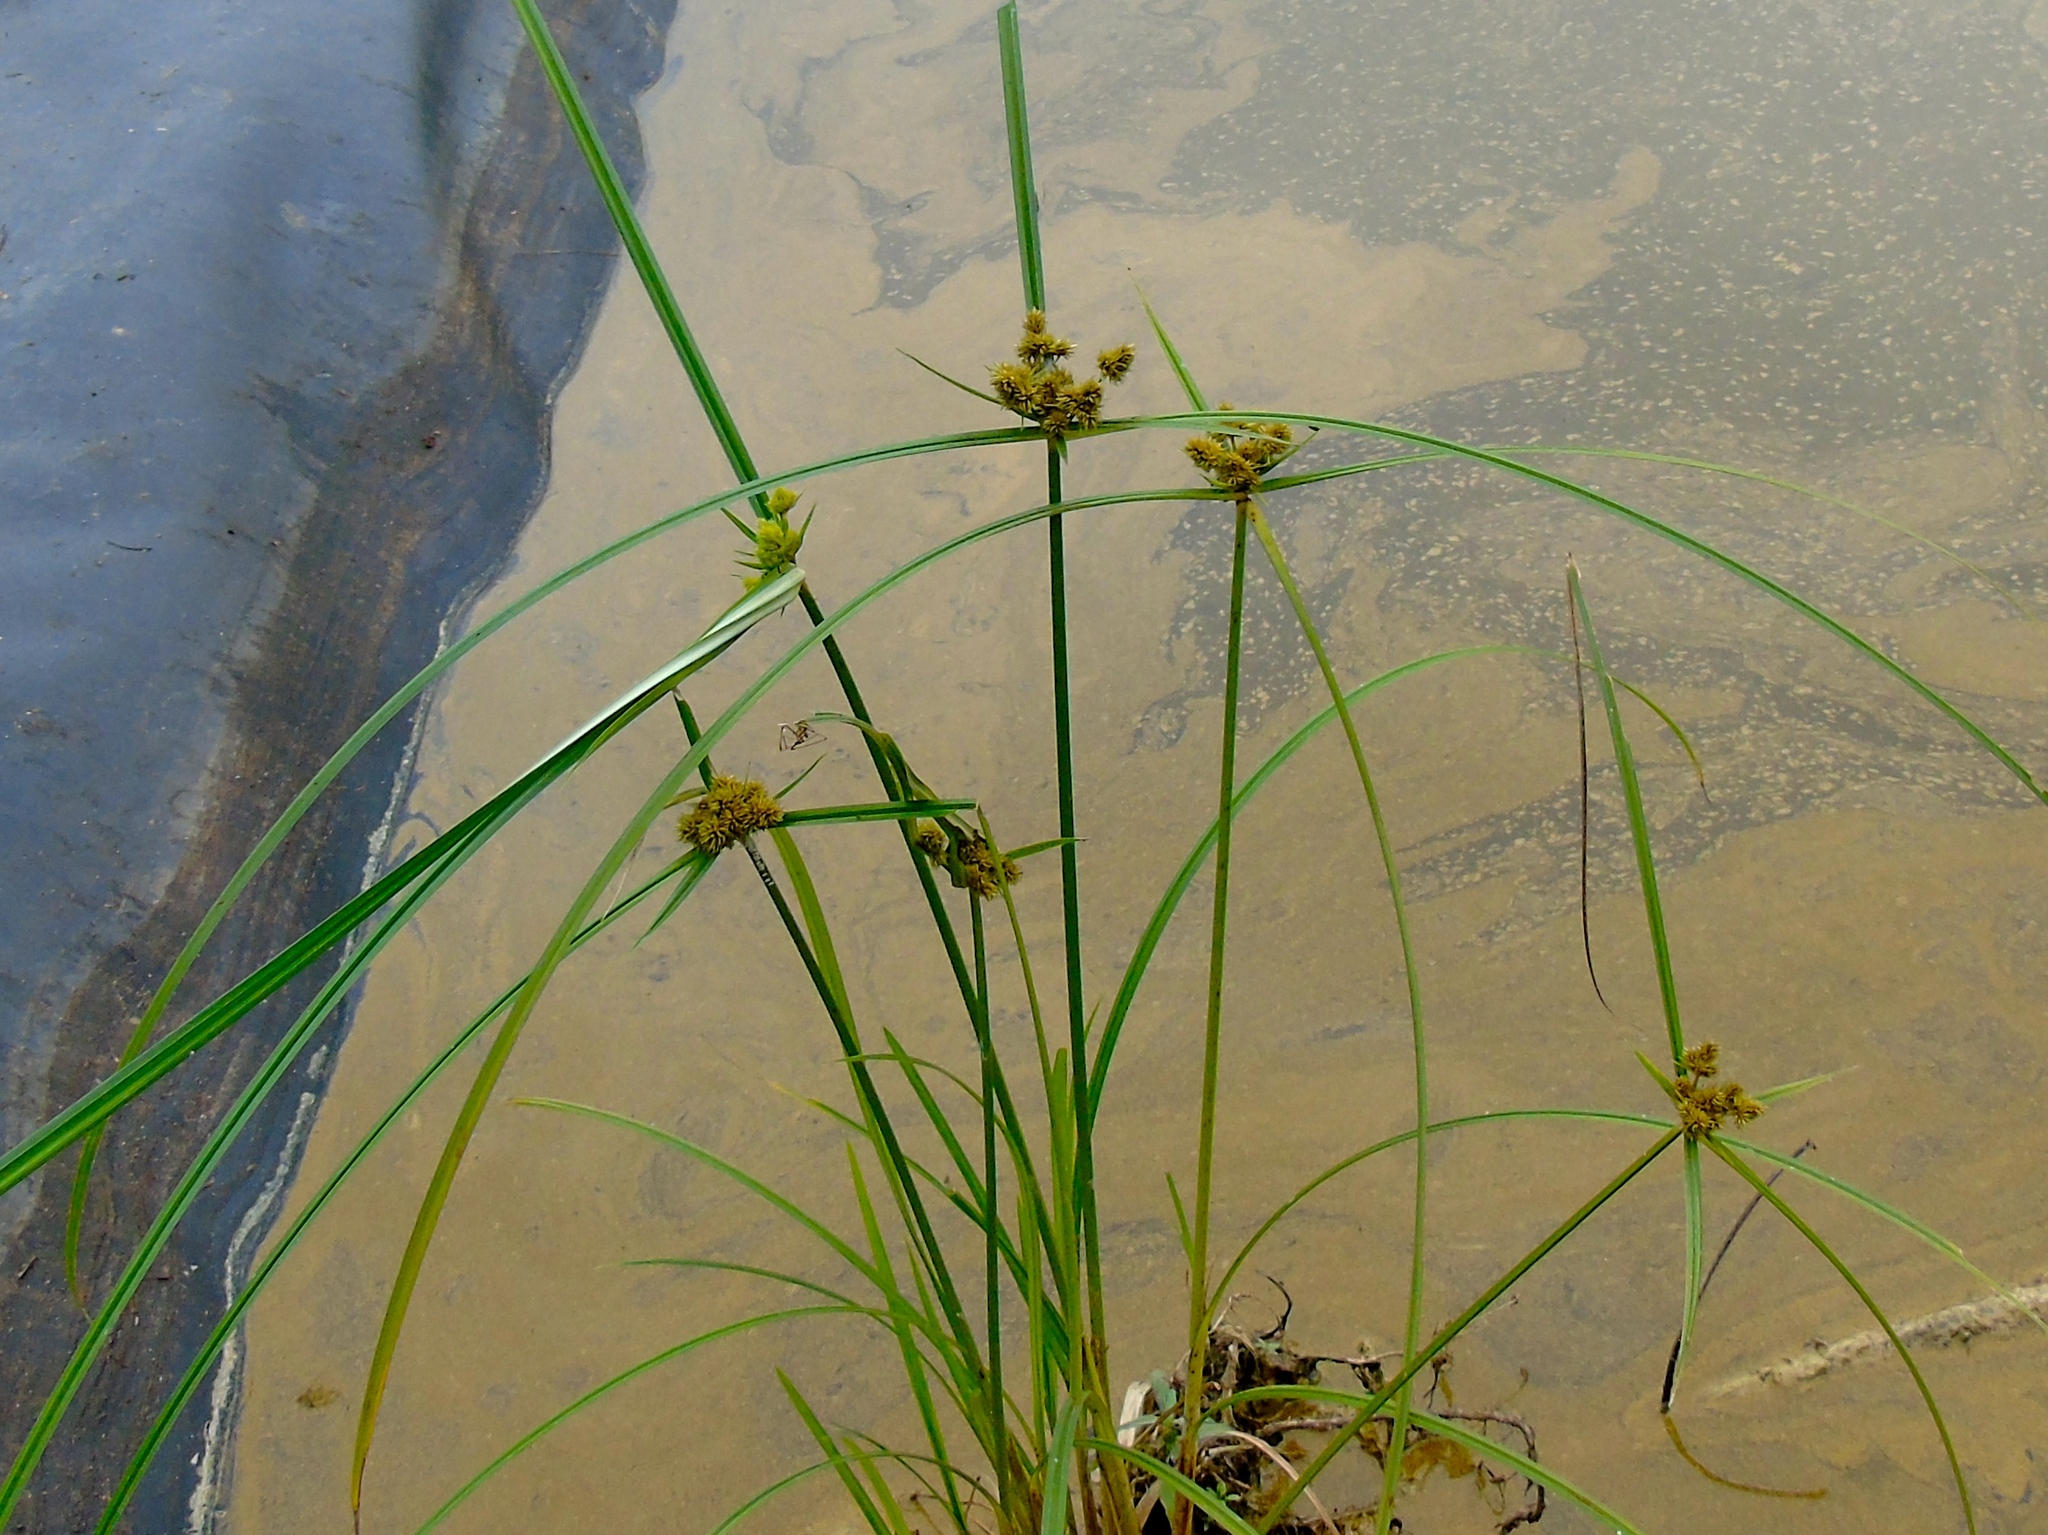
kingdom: Plantae
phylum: Tracheophyta
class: Liliopsida
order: Poales
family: Cyperaceae
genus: Cyperus
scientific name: Cyperus
